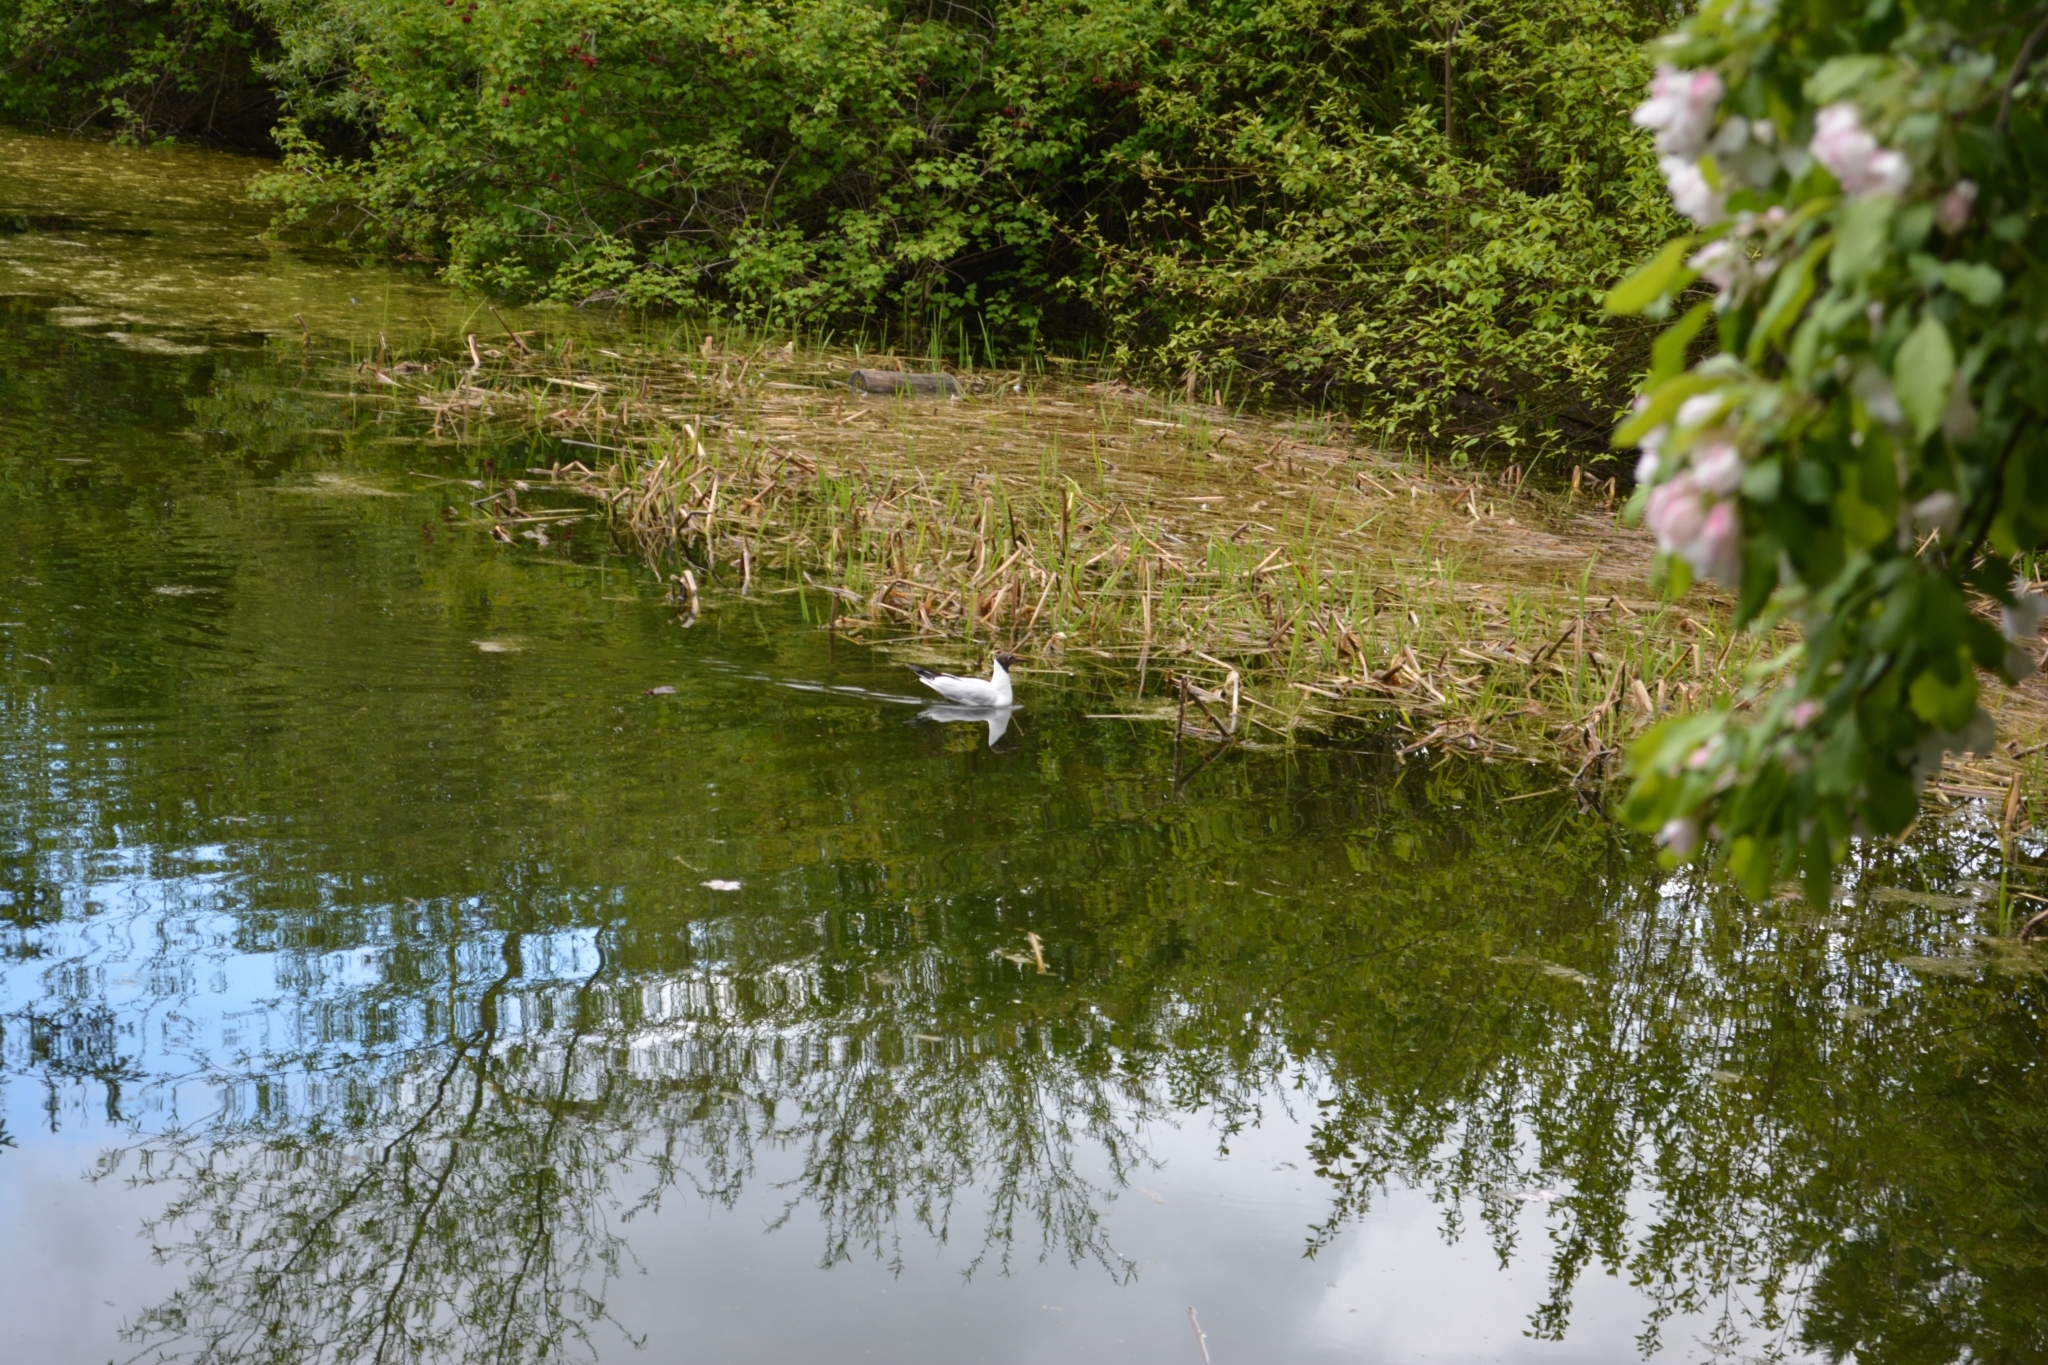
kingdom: Animalia
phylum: Chordata
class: Aves
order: Charadriiformes
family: Laridae
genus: Chroicocephalus
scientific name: Chroicocephalus ridibundus
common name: Black-headed gull
